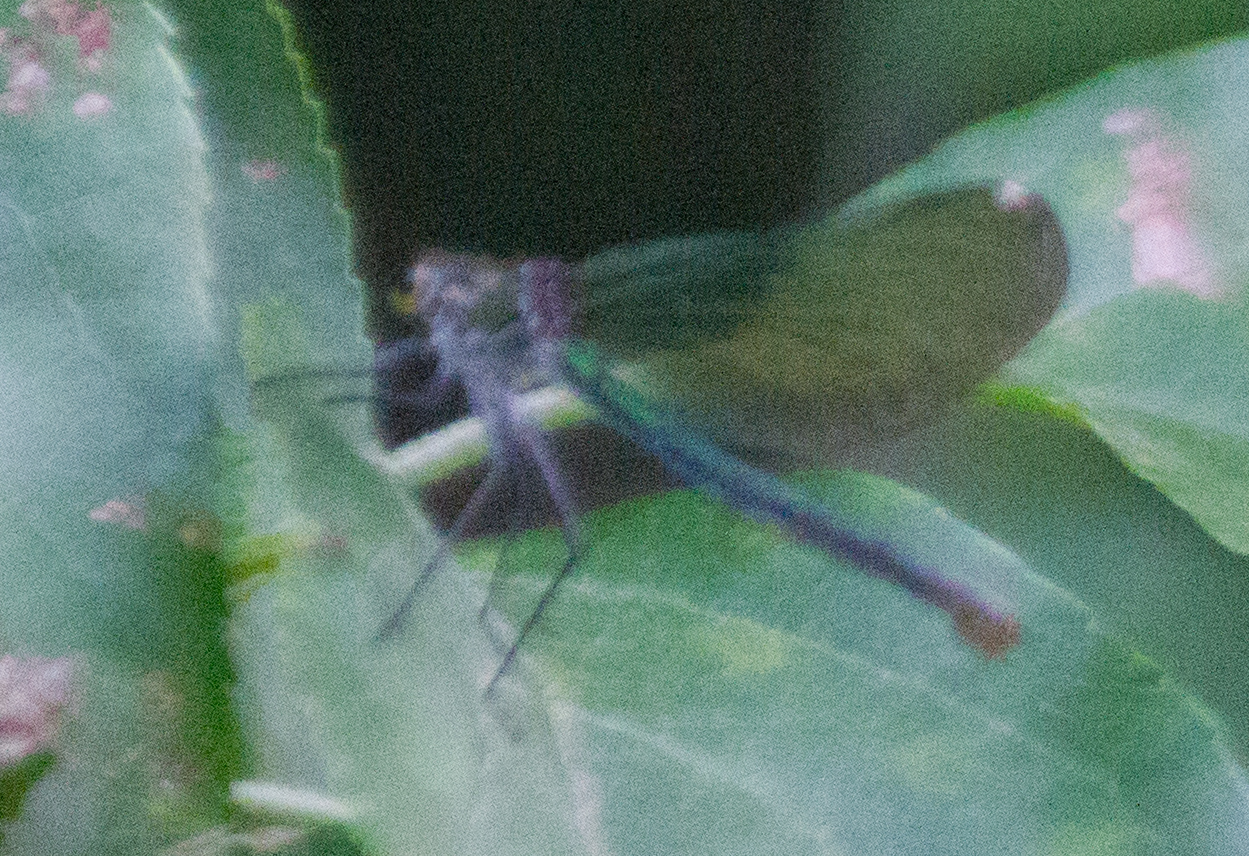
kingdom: Animalia
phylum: Arthropoda
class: Insecta
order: Odonata
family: Calopterygidae
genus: Calopteryx
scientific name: Calopteryx splendens
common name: Banded demoiselle
